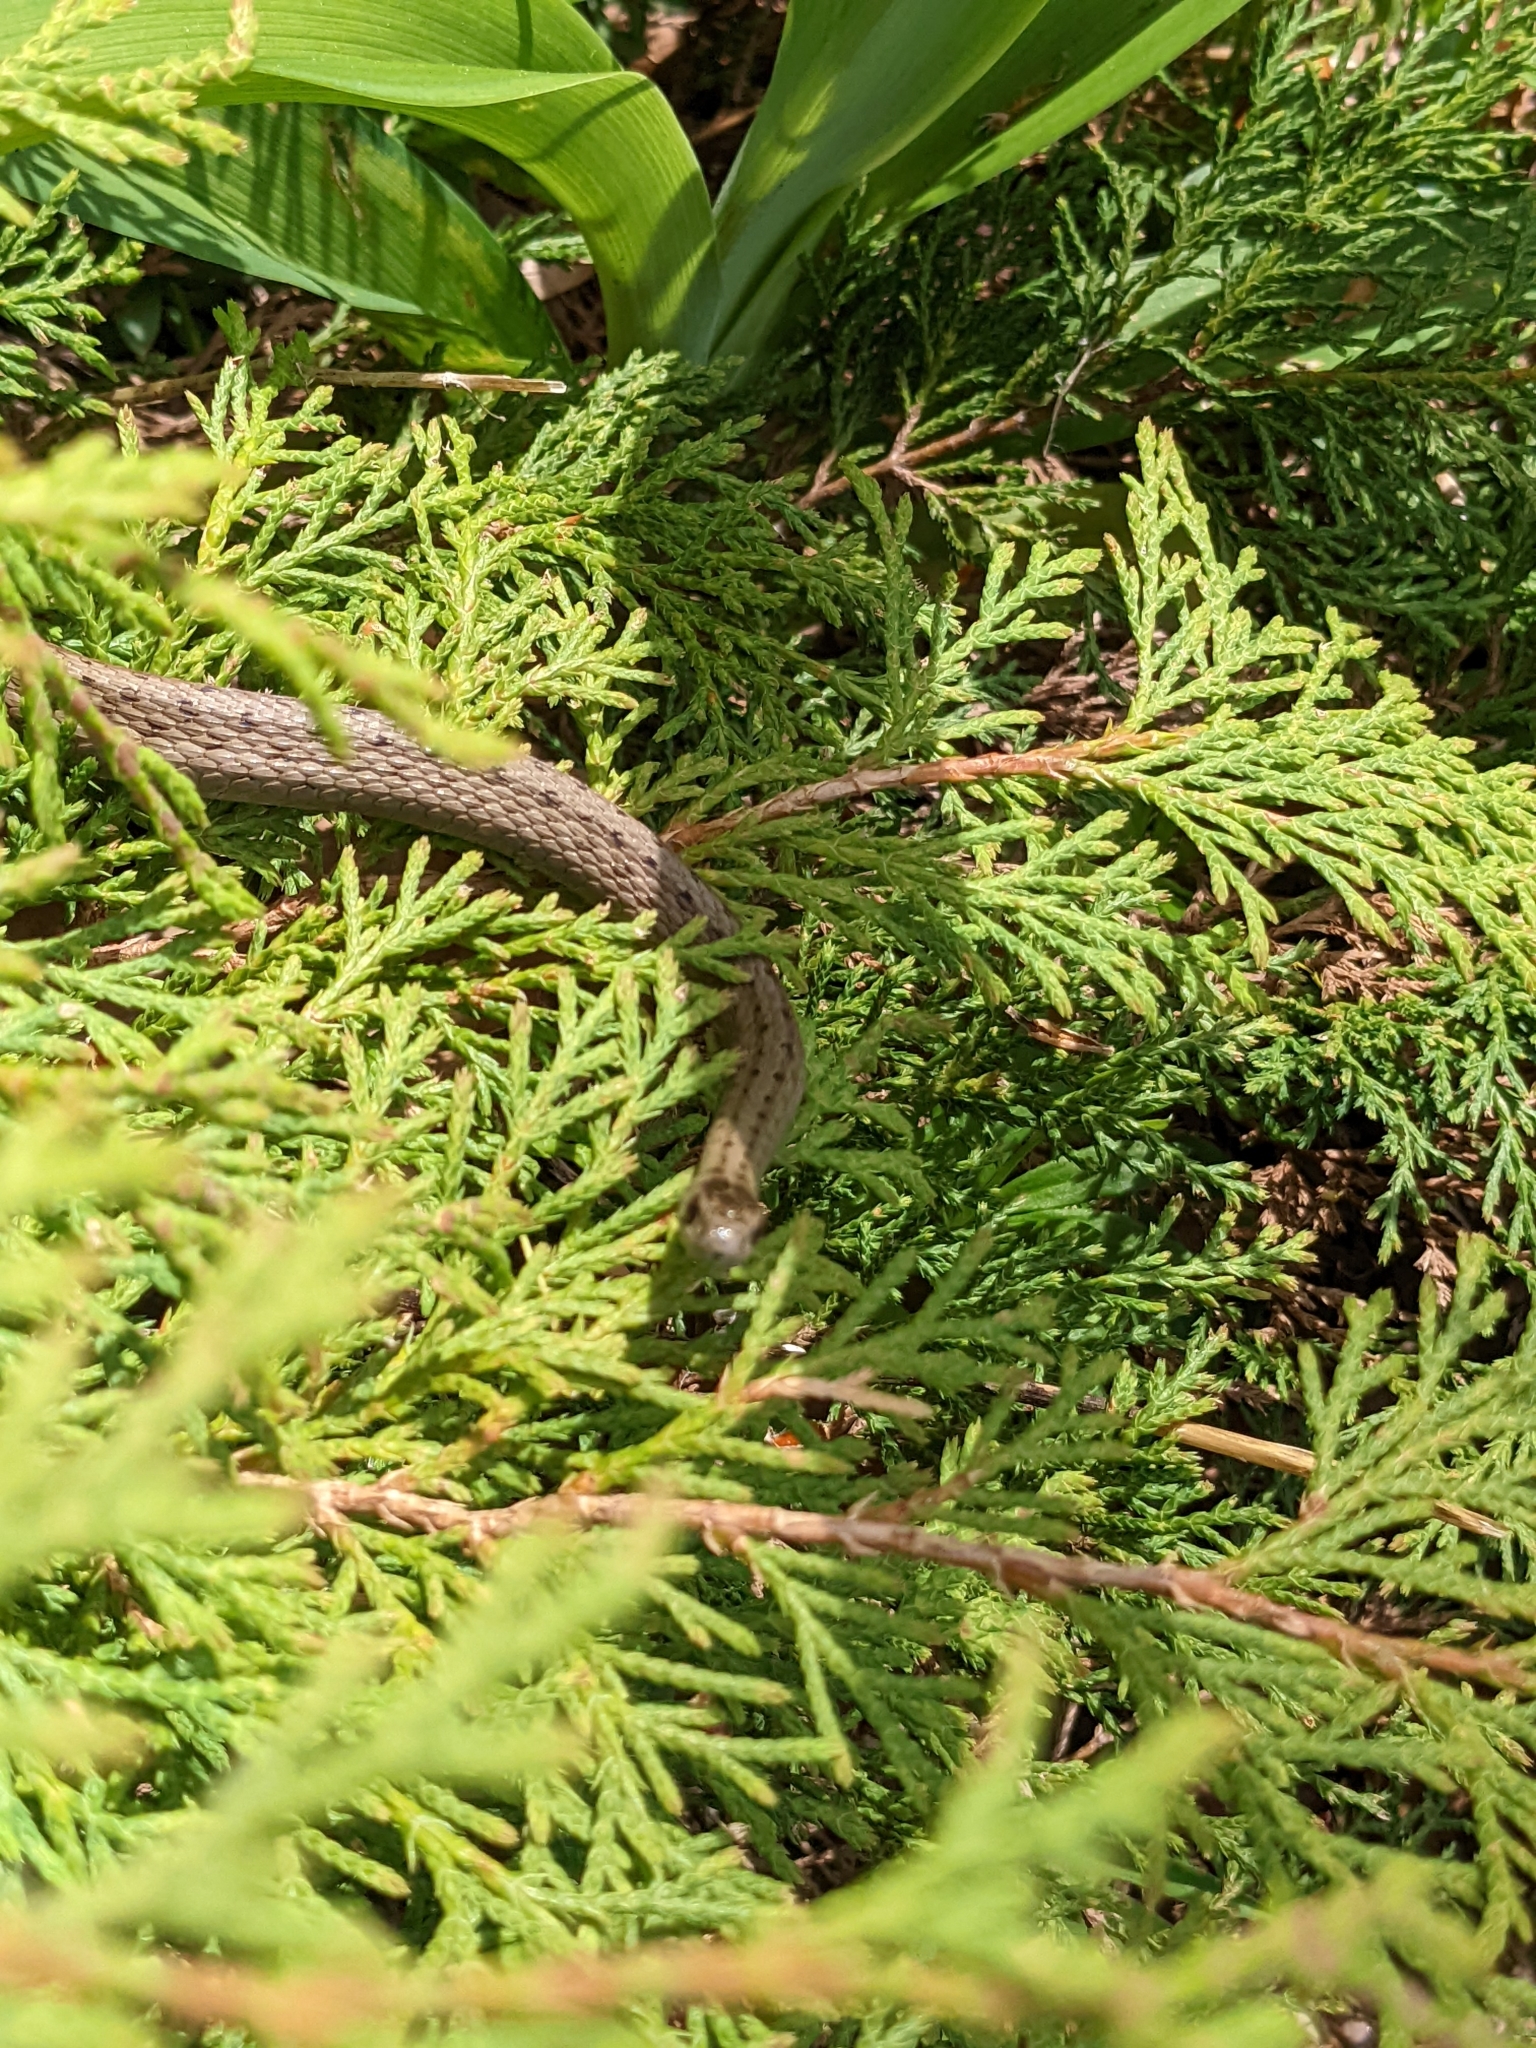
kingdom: Animalia
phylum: Chordata
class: Squamata
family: Colubridae
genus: Storeria
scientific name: Storeria dekayi
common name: (dekay’s) brown snake
